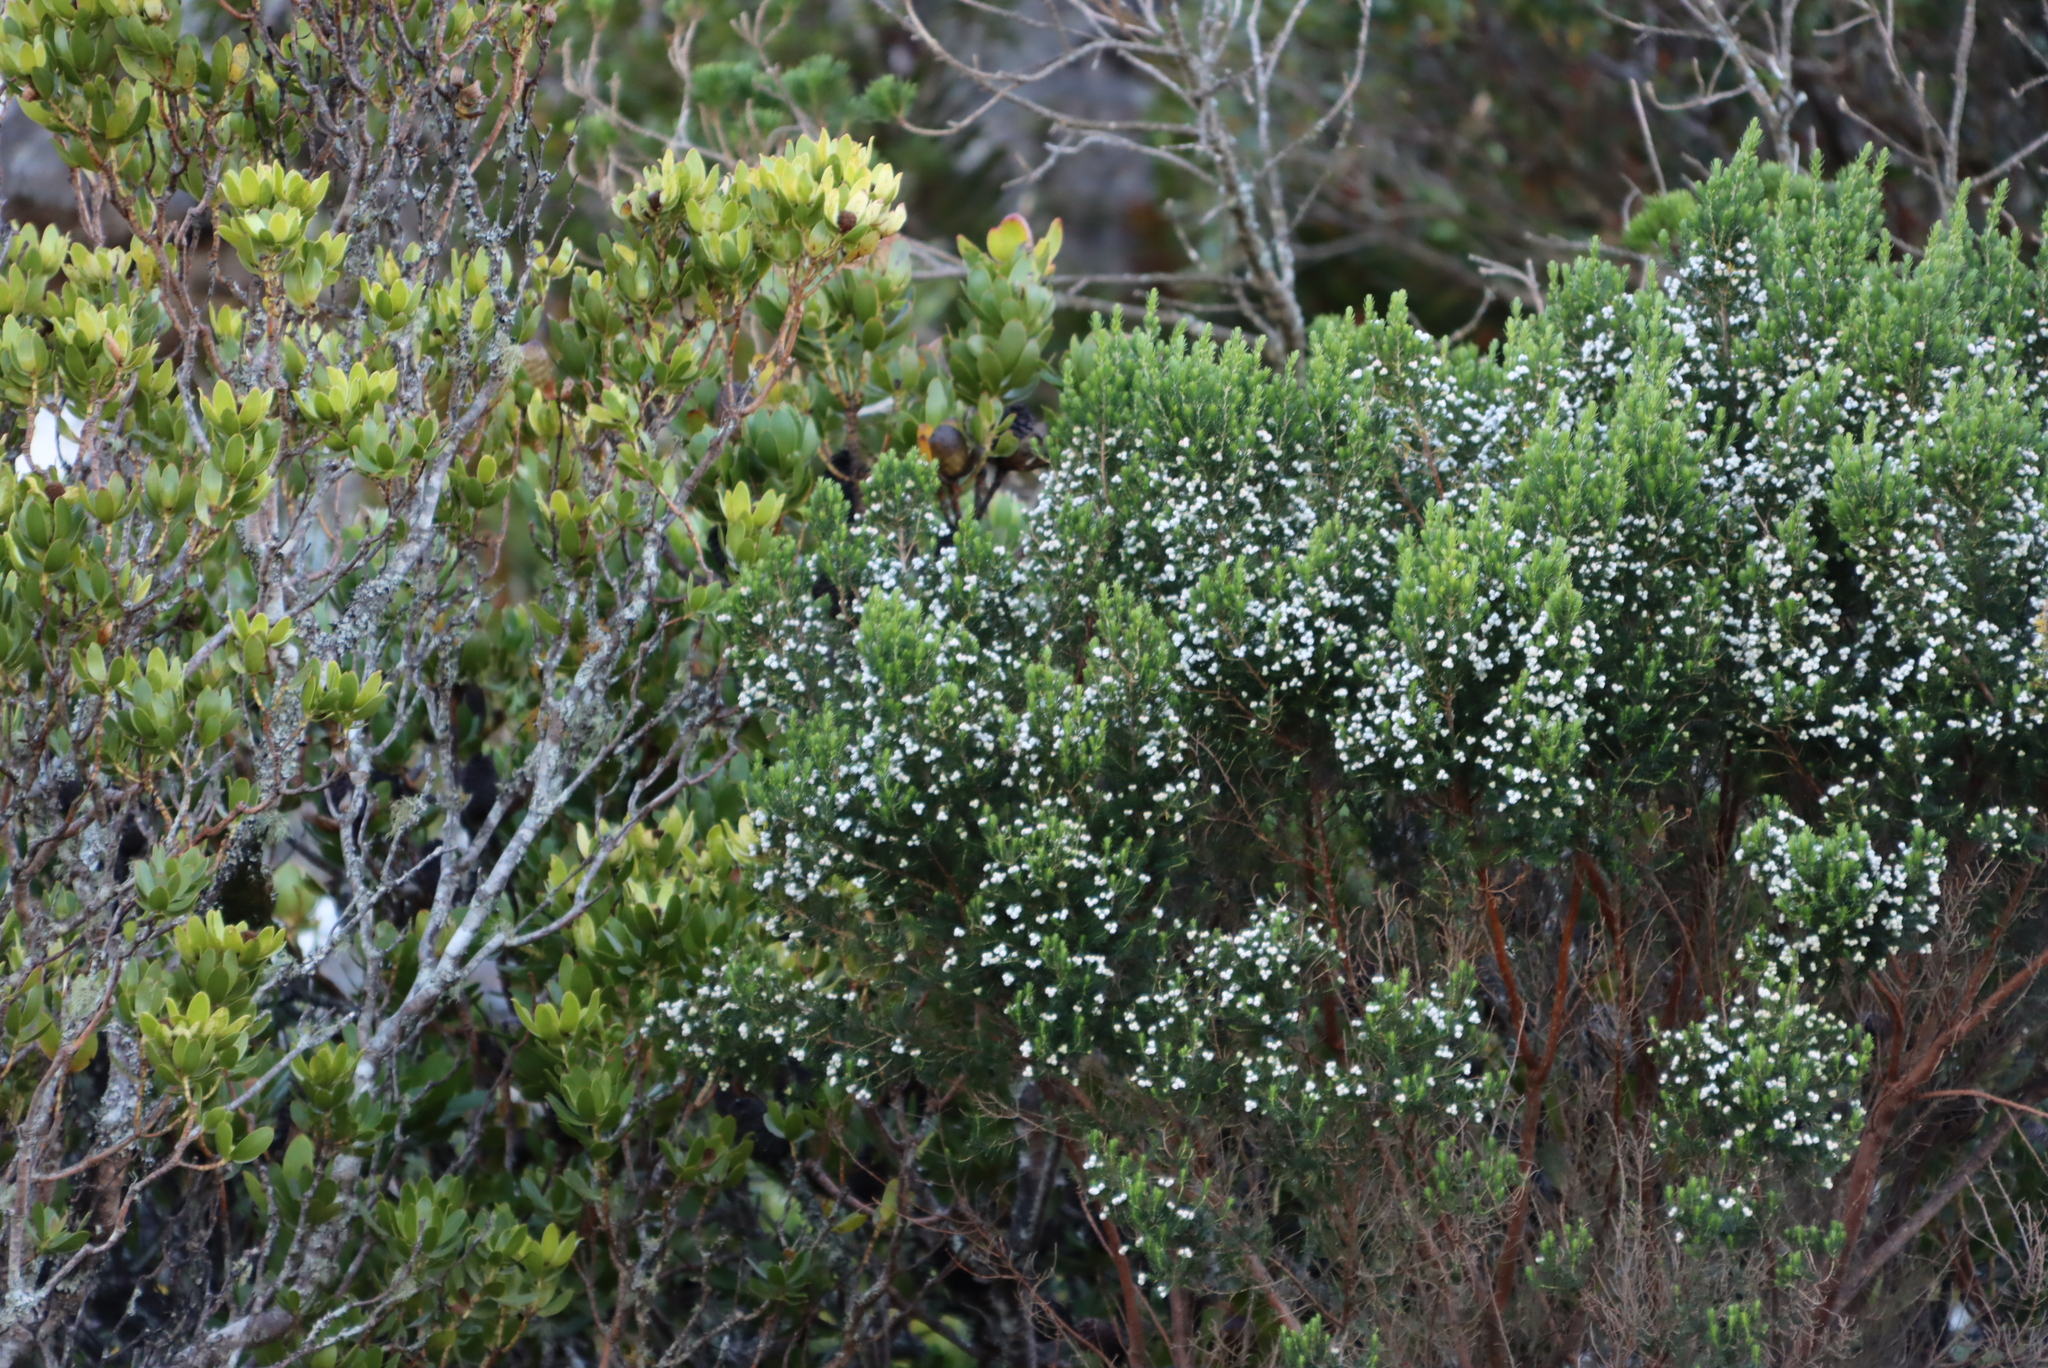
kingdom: Plantae
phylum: Tracheophyta
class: Magnoliopsida
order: Ericales
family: Ericaceae
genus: Erica
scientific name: Erica triflora
